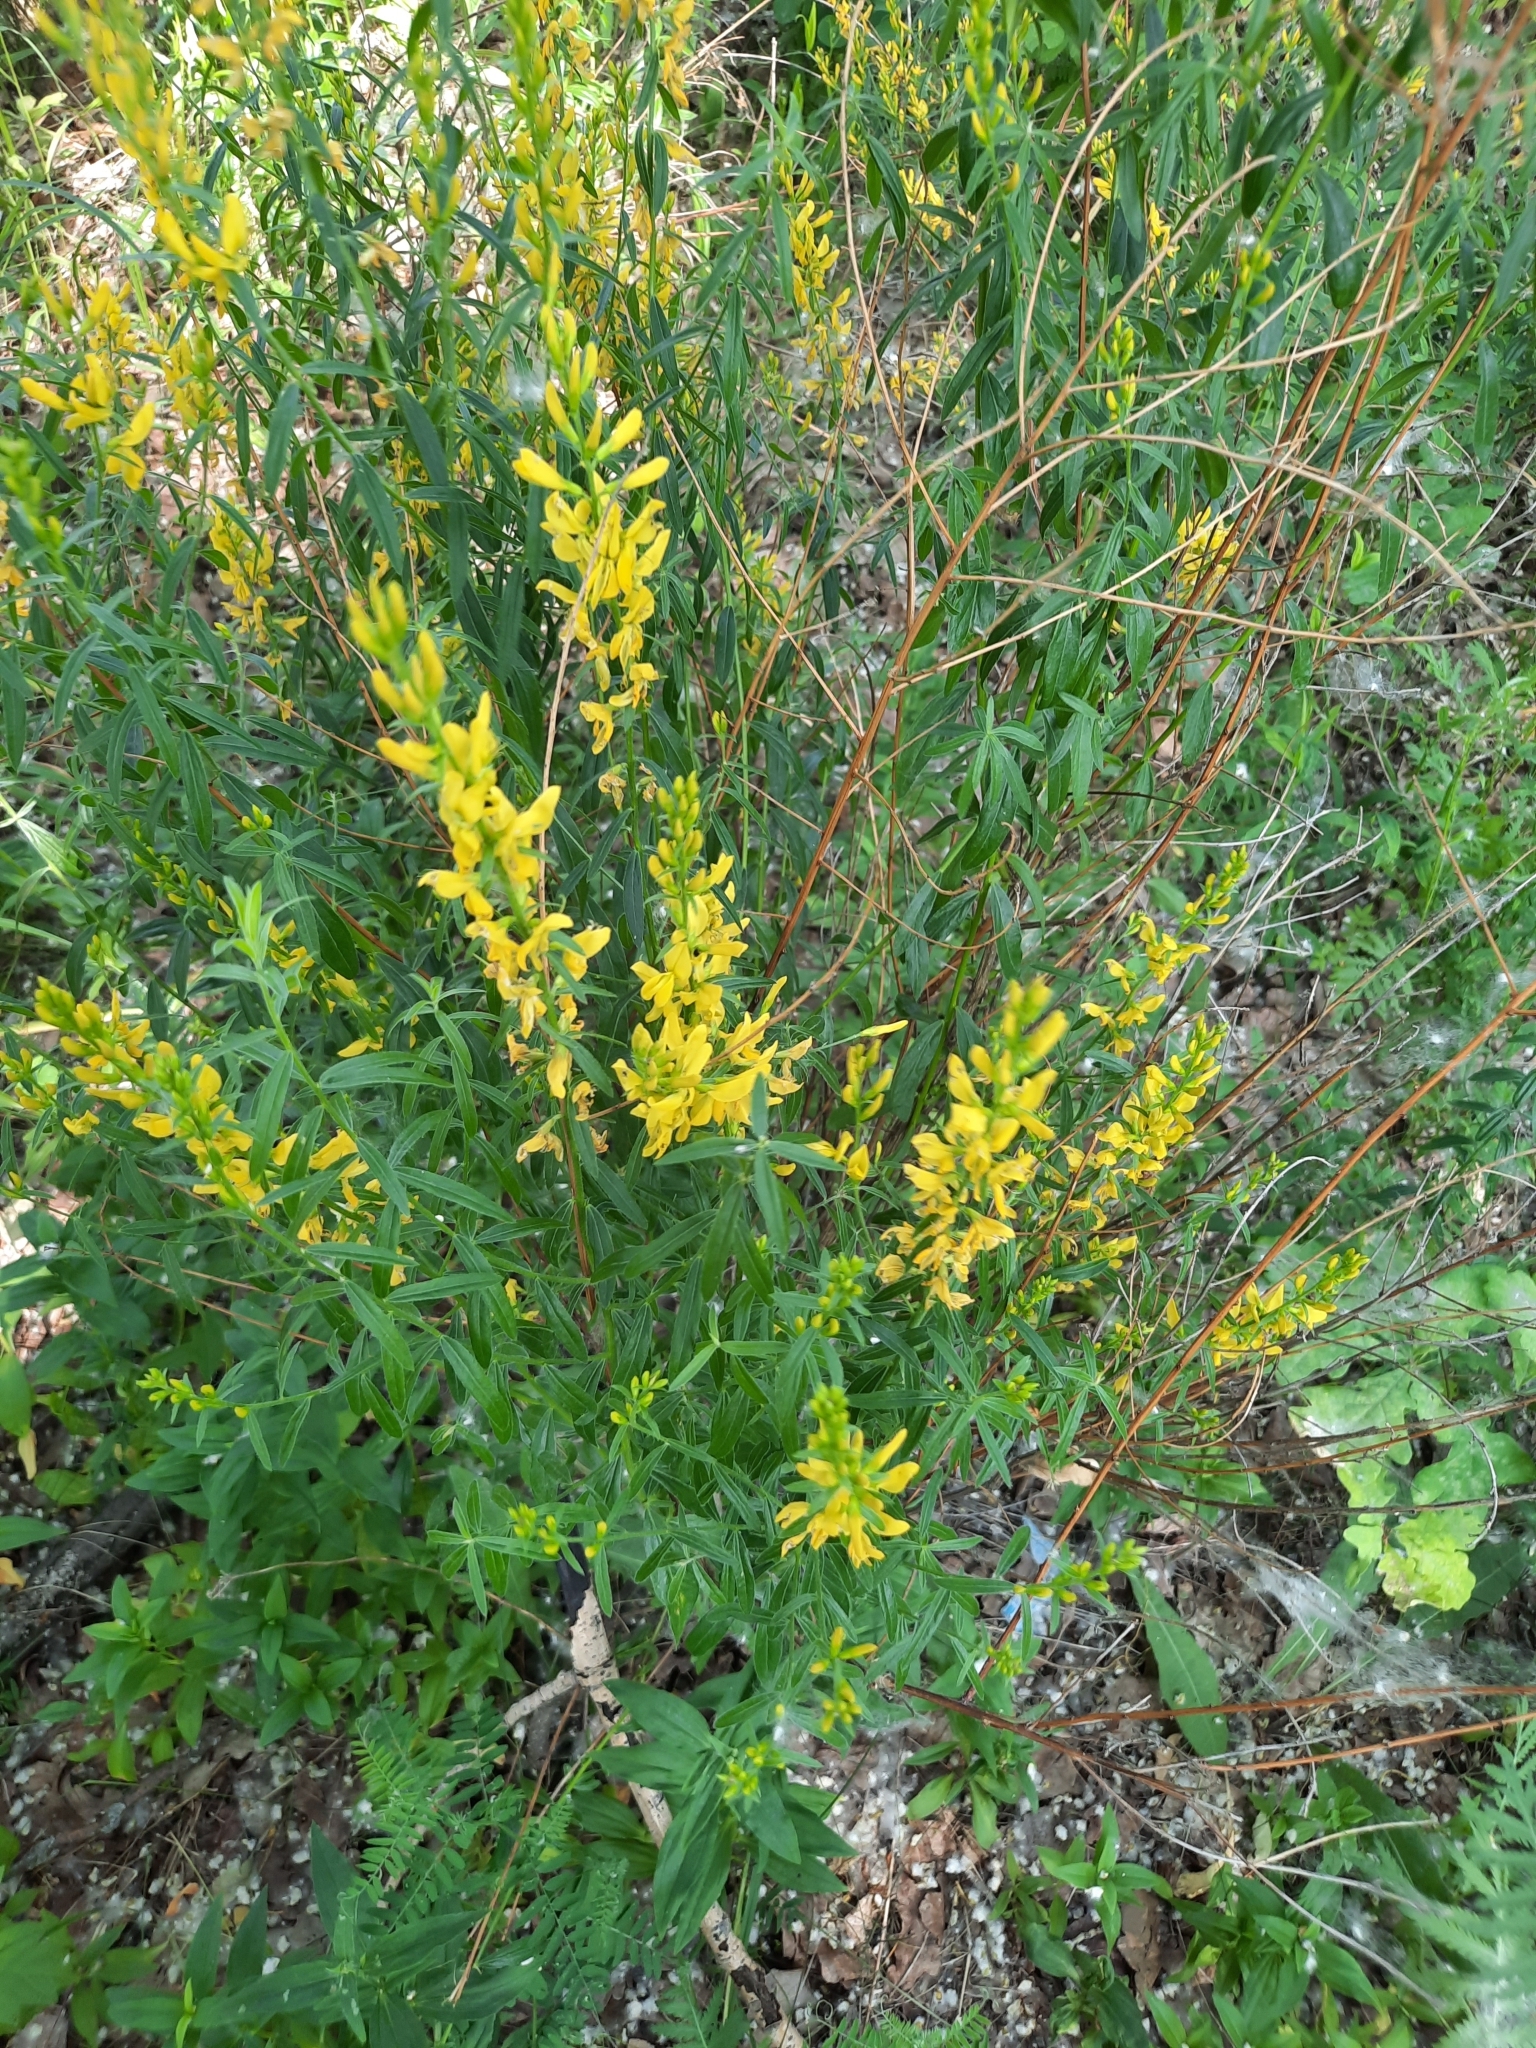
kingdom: Plantae
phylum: Tracheophyta
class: Magnoliopsida
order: Fabales
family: Fabaceae
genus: Genista
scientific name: Genista tinctoria
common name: Dyer's greenweed
